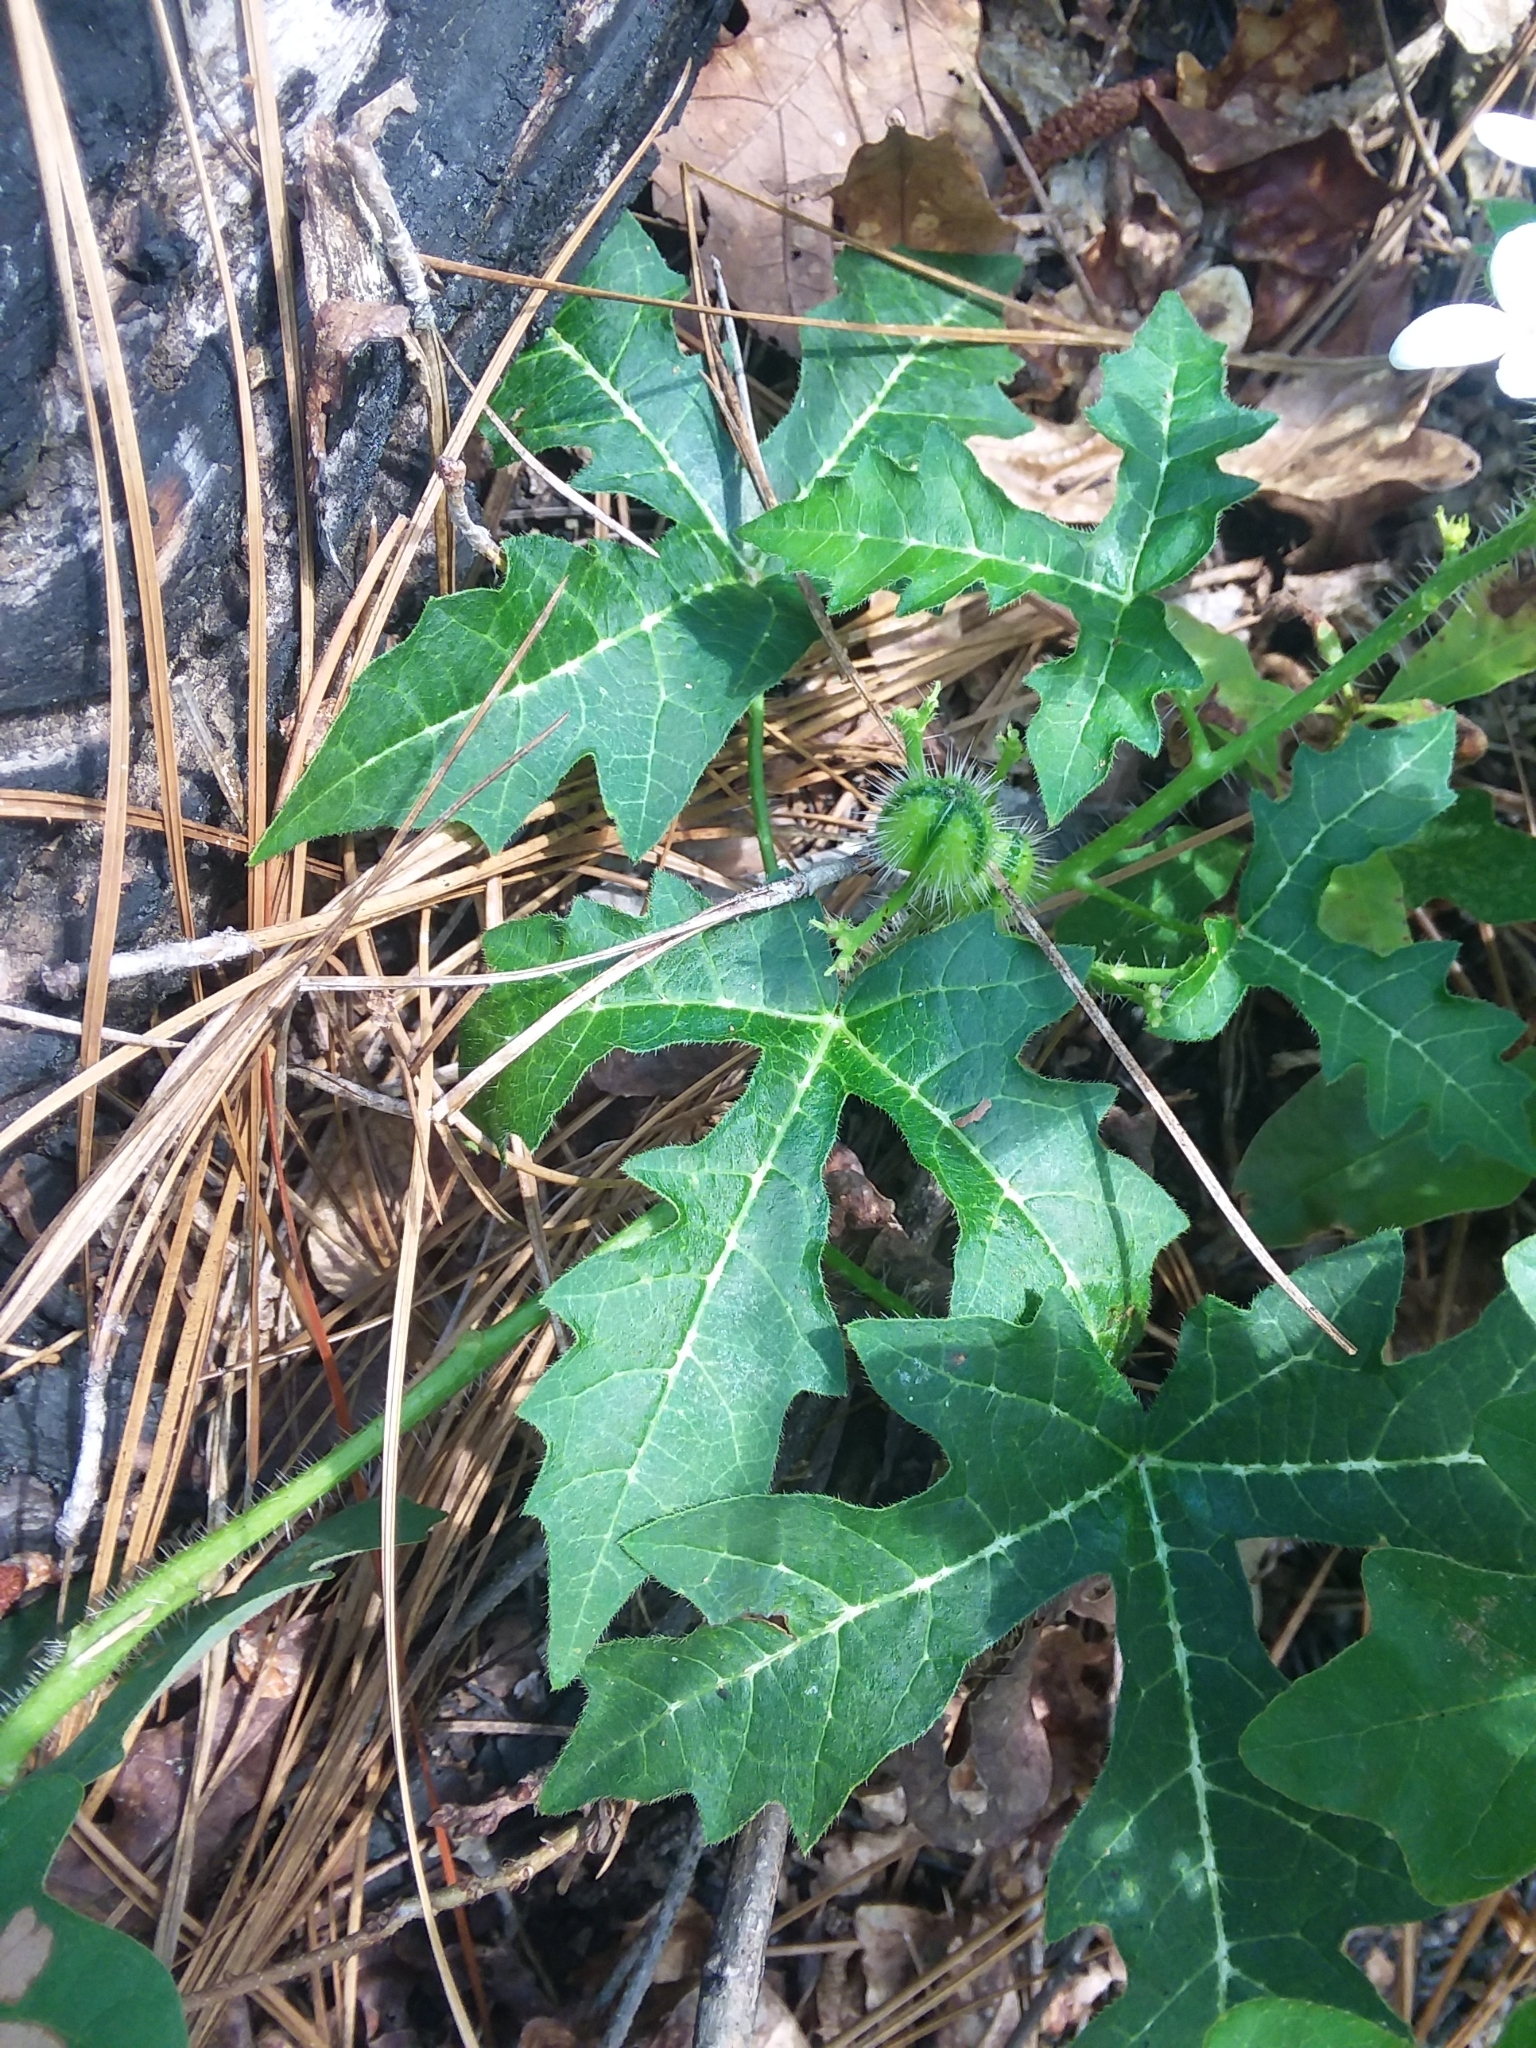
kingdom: Plantae
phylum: Tracheophyta
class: Magnoliopsida
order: Malpighiales
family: Euphorbiaceae
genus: Cnidoscolus
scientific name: Cnidoscolus stimulosus
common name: Bull-nettle
